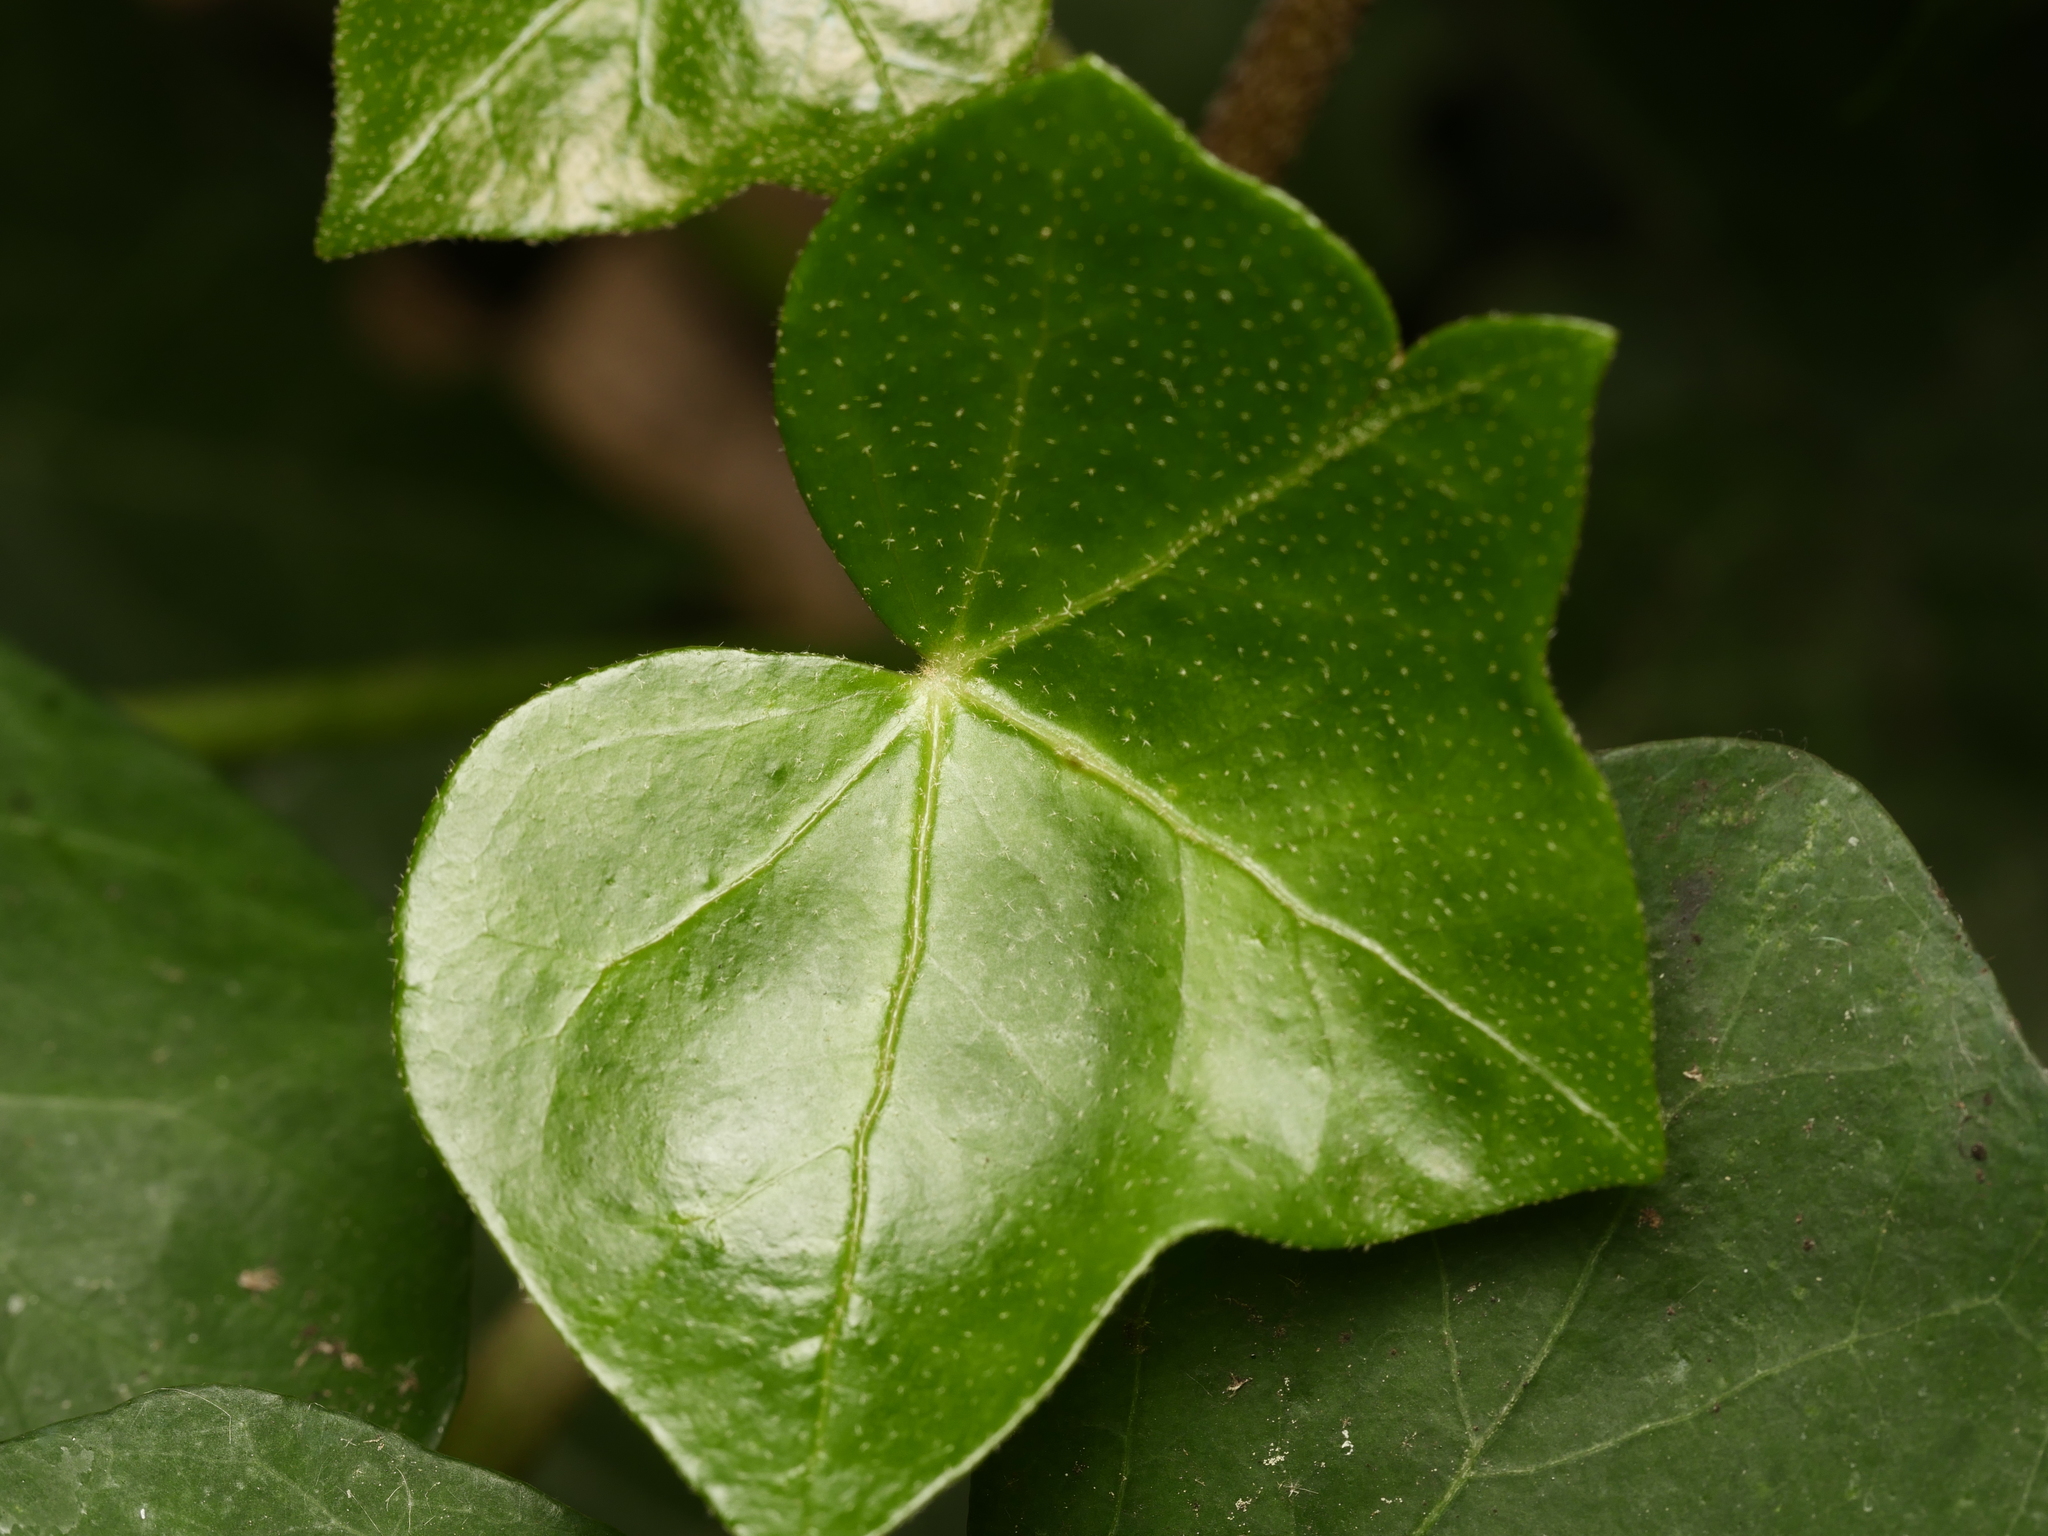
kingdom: Plantae
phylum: Tracheophyta
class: Magnoliopsida
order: Apiales
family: Araliaceae
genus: Hedera
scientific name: Hedera helix
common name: Ivy
